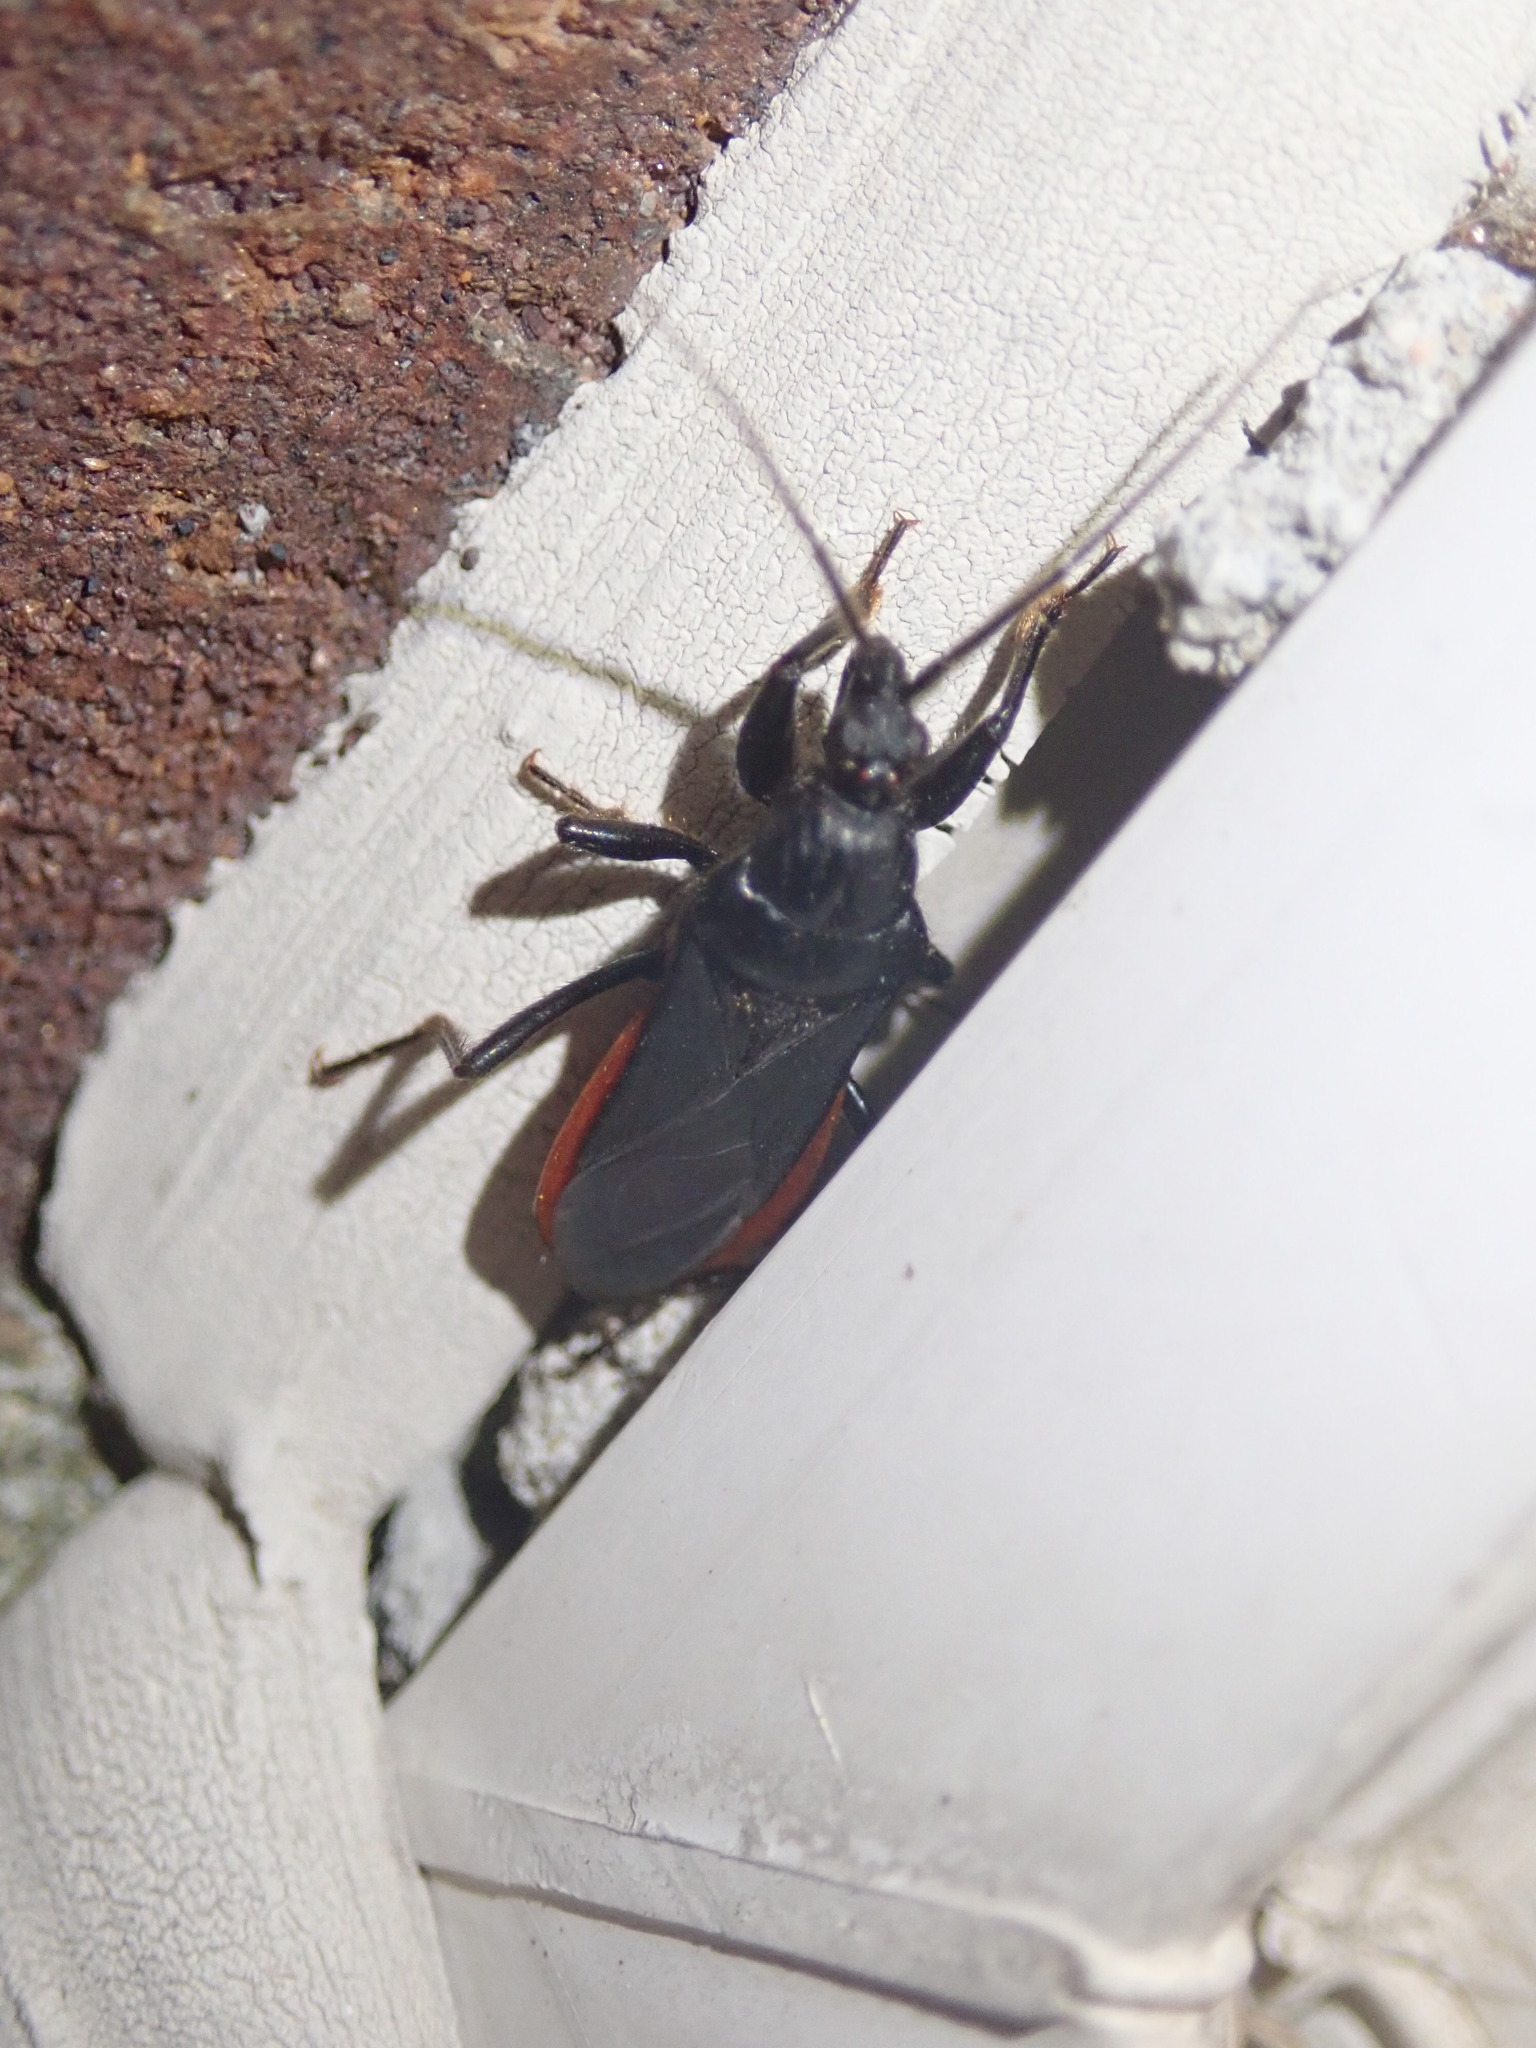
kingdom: Animalia
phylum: Arthropoda
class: Insecta
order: Hemiptera
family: Reduviidae
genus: Melanolestes
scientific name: Melanolestes picipes
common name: Assassin bug
